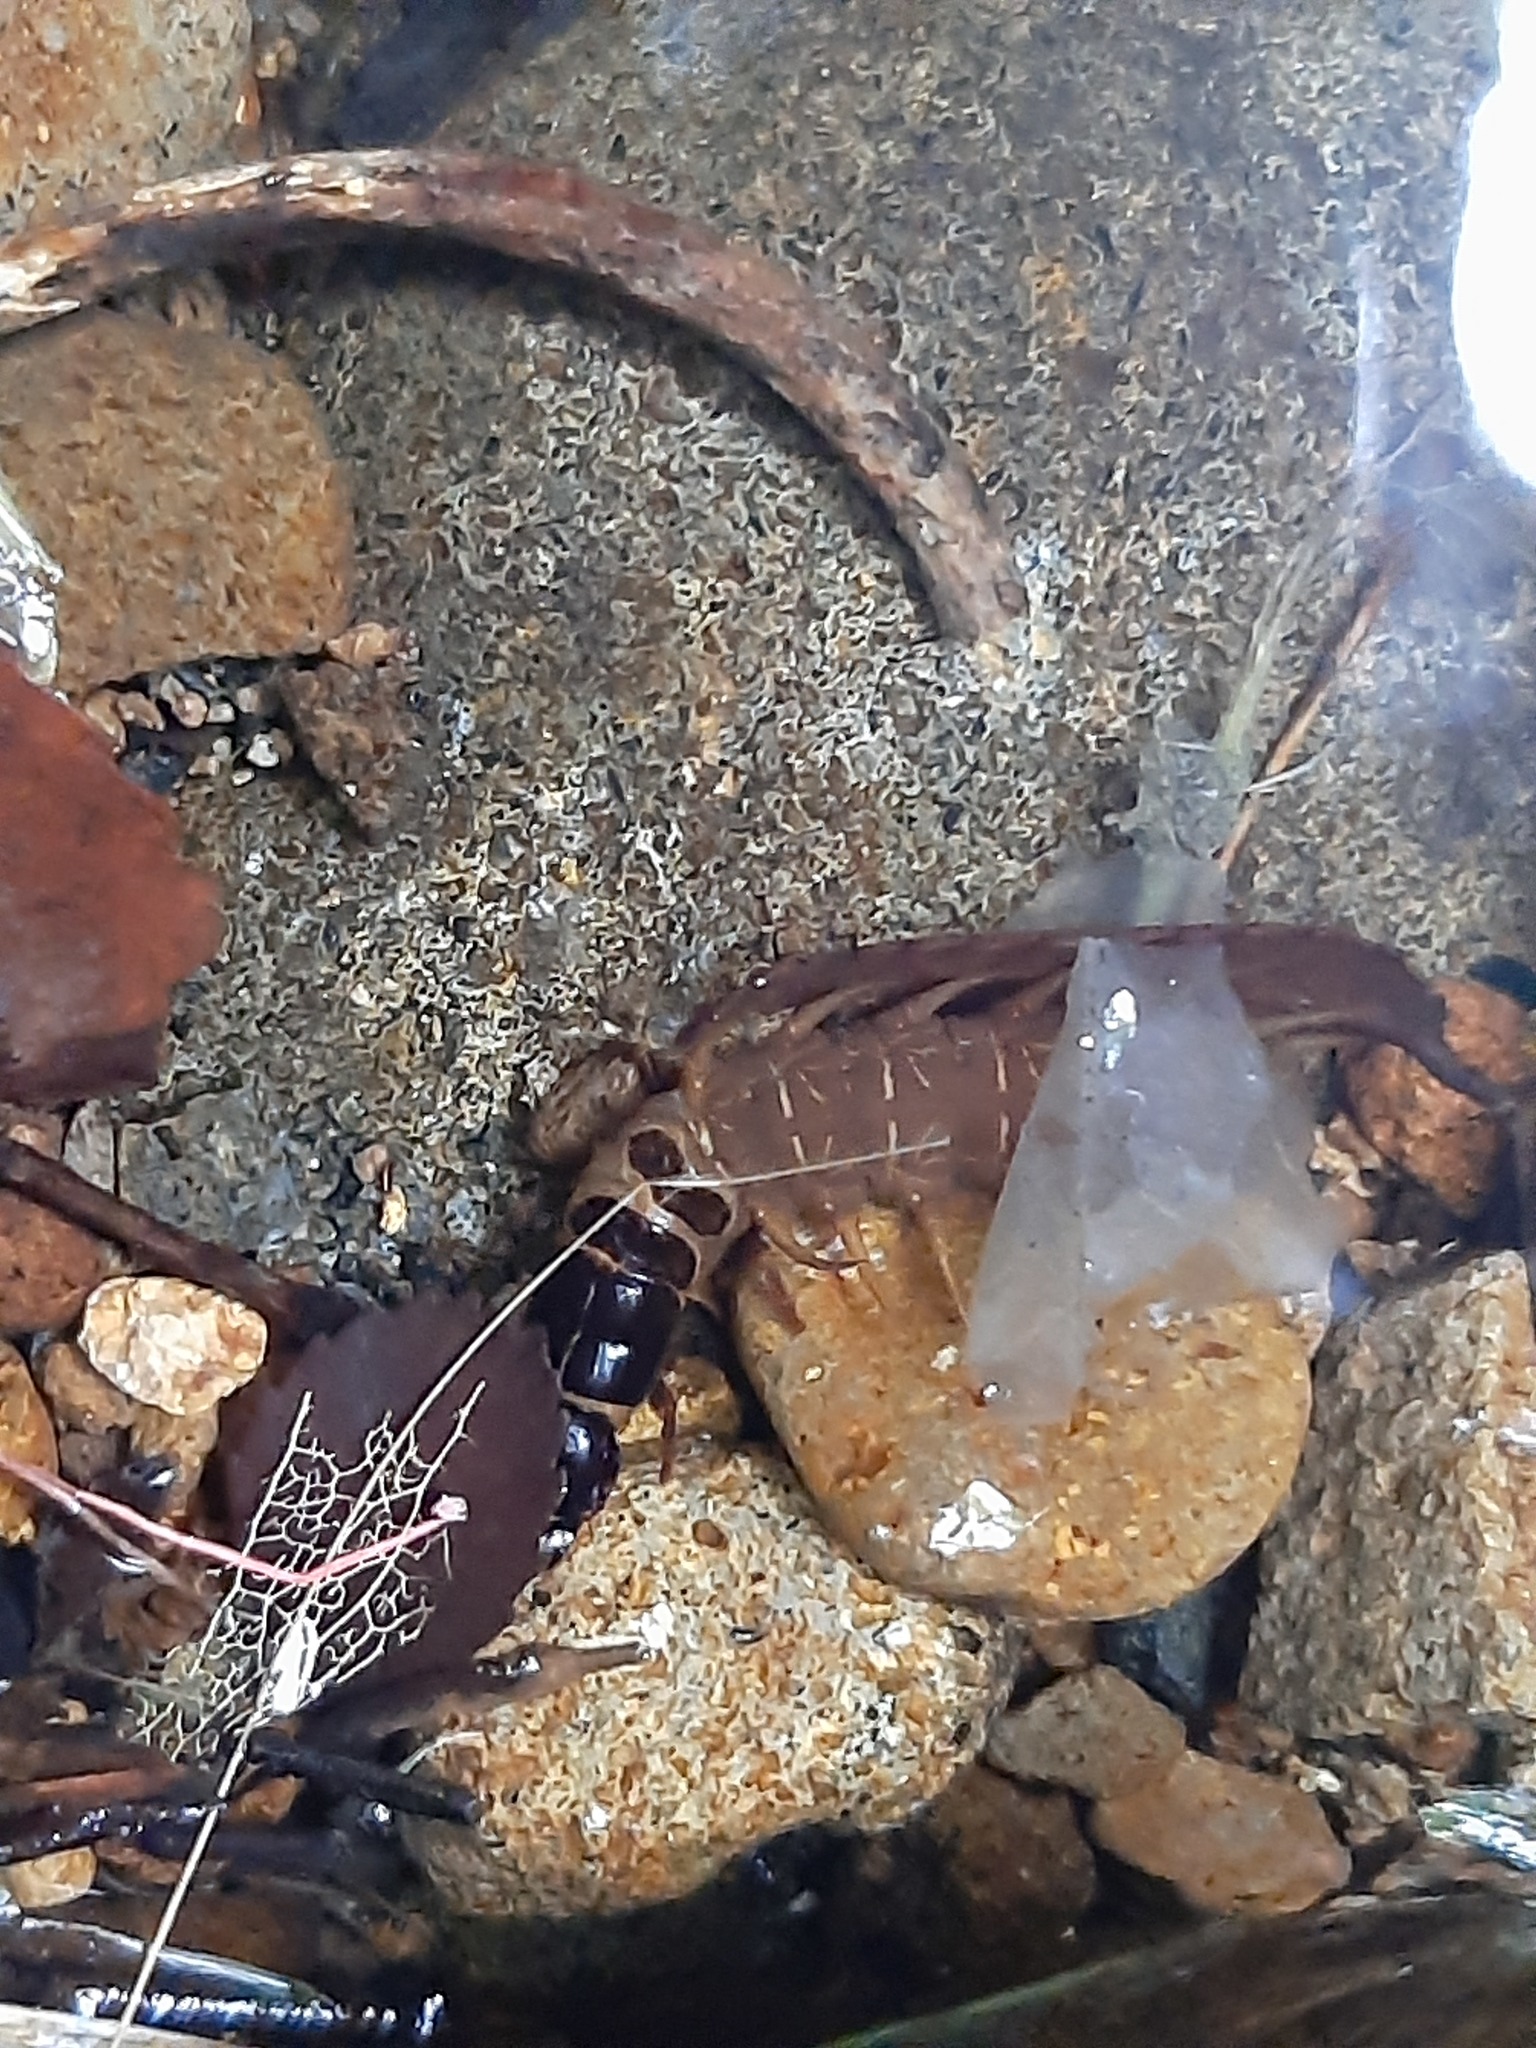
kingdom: Animalia
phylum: Arthropoda
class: Insecta
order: Megaloptera
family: Corydalidae
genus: Archichauliodes
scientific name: Archichauliodes diversus
